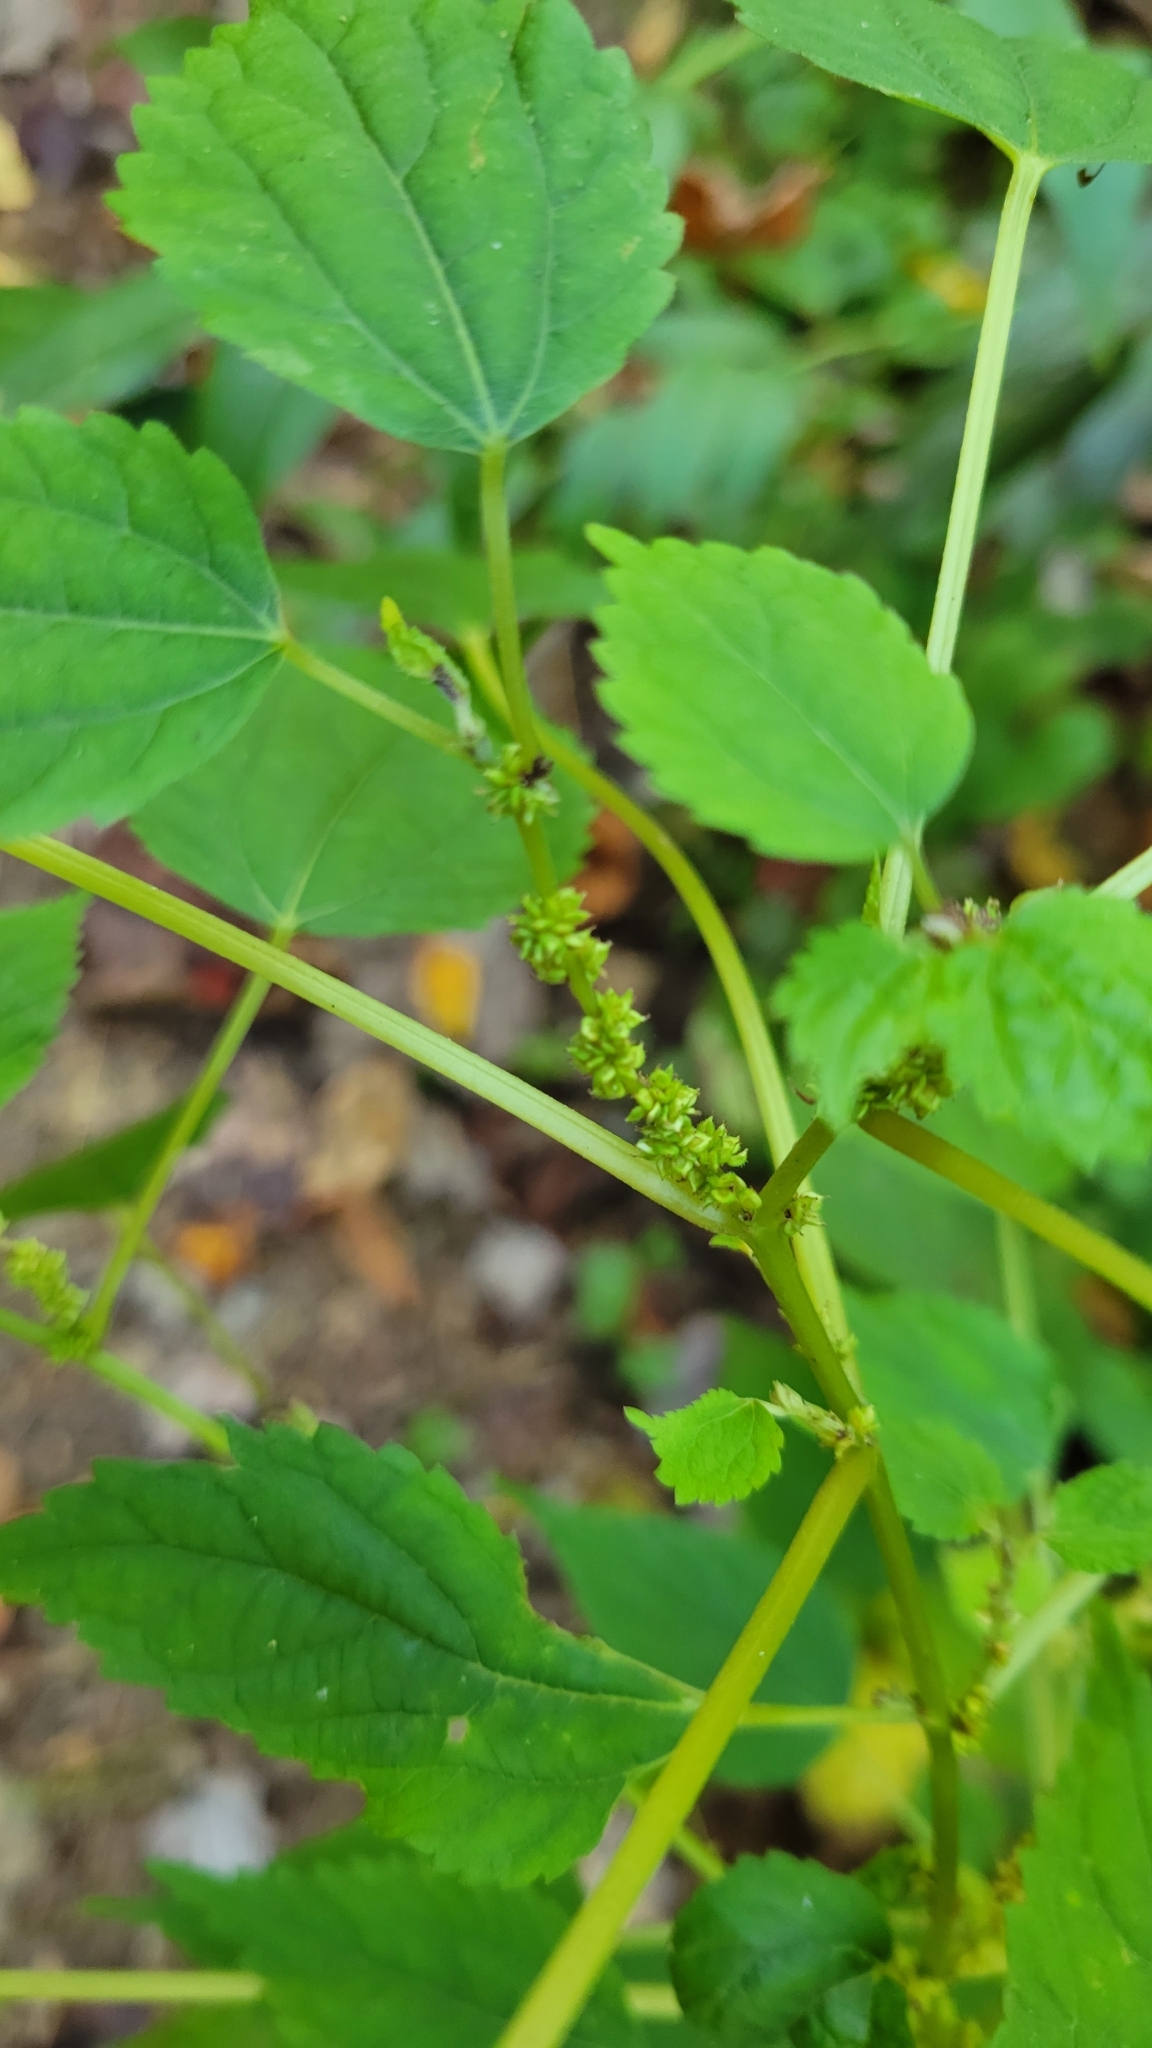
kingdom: Plantae
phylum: Tracheophyta
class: Magnoliopsida
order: Rosales
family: Urticaceae
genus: Boehmeria
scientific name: Boehmeria cylindrica
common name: Bog-hemp
